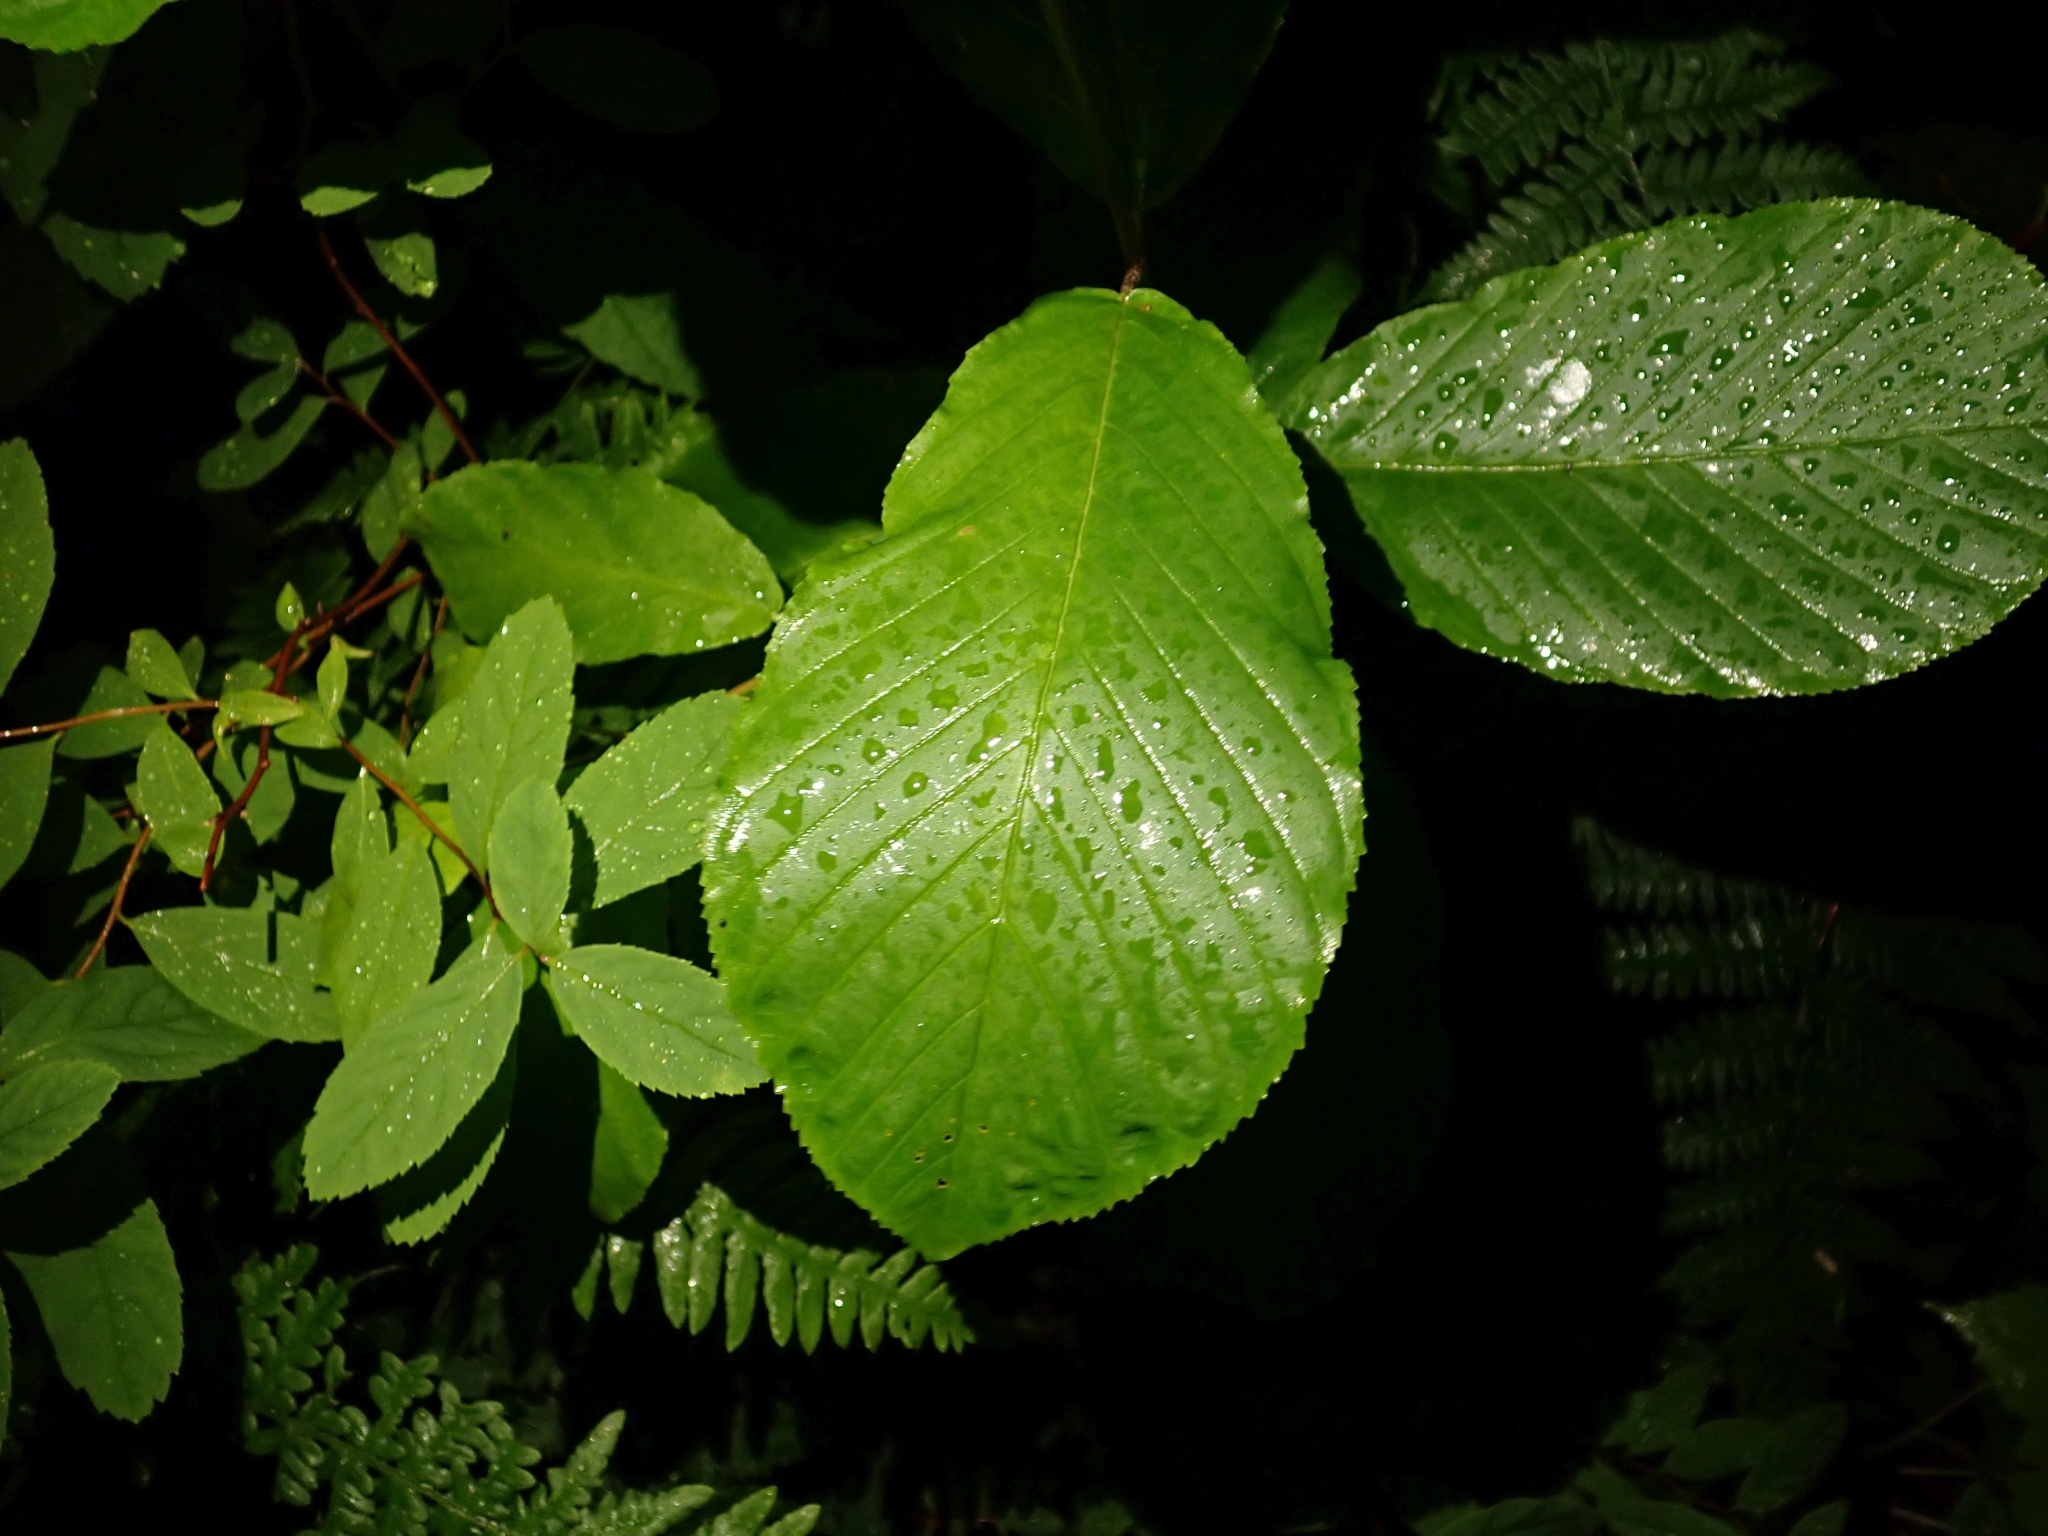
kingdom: Plantae
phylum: Tracheophyta
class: Magnoliopsida
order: Rosales
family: Rhamnaceae
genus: Frangula
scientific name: Frangula purshiana
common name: Cascara buckthorn
